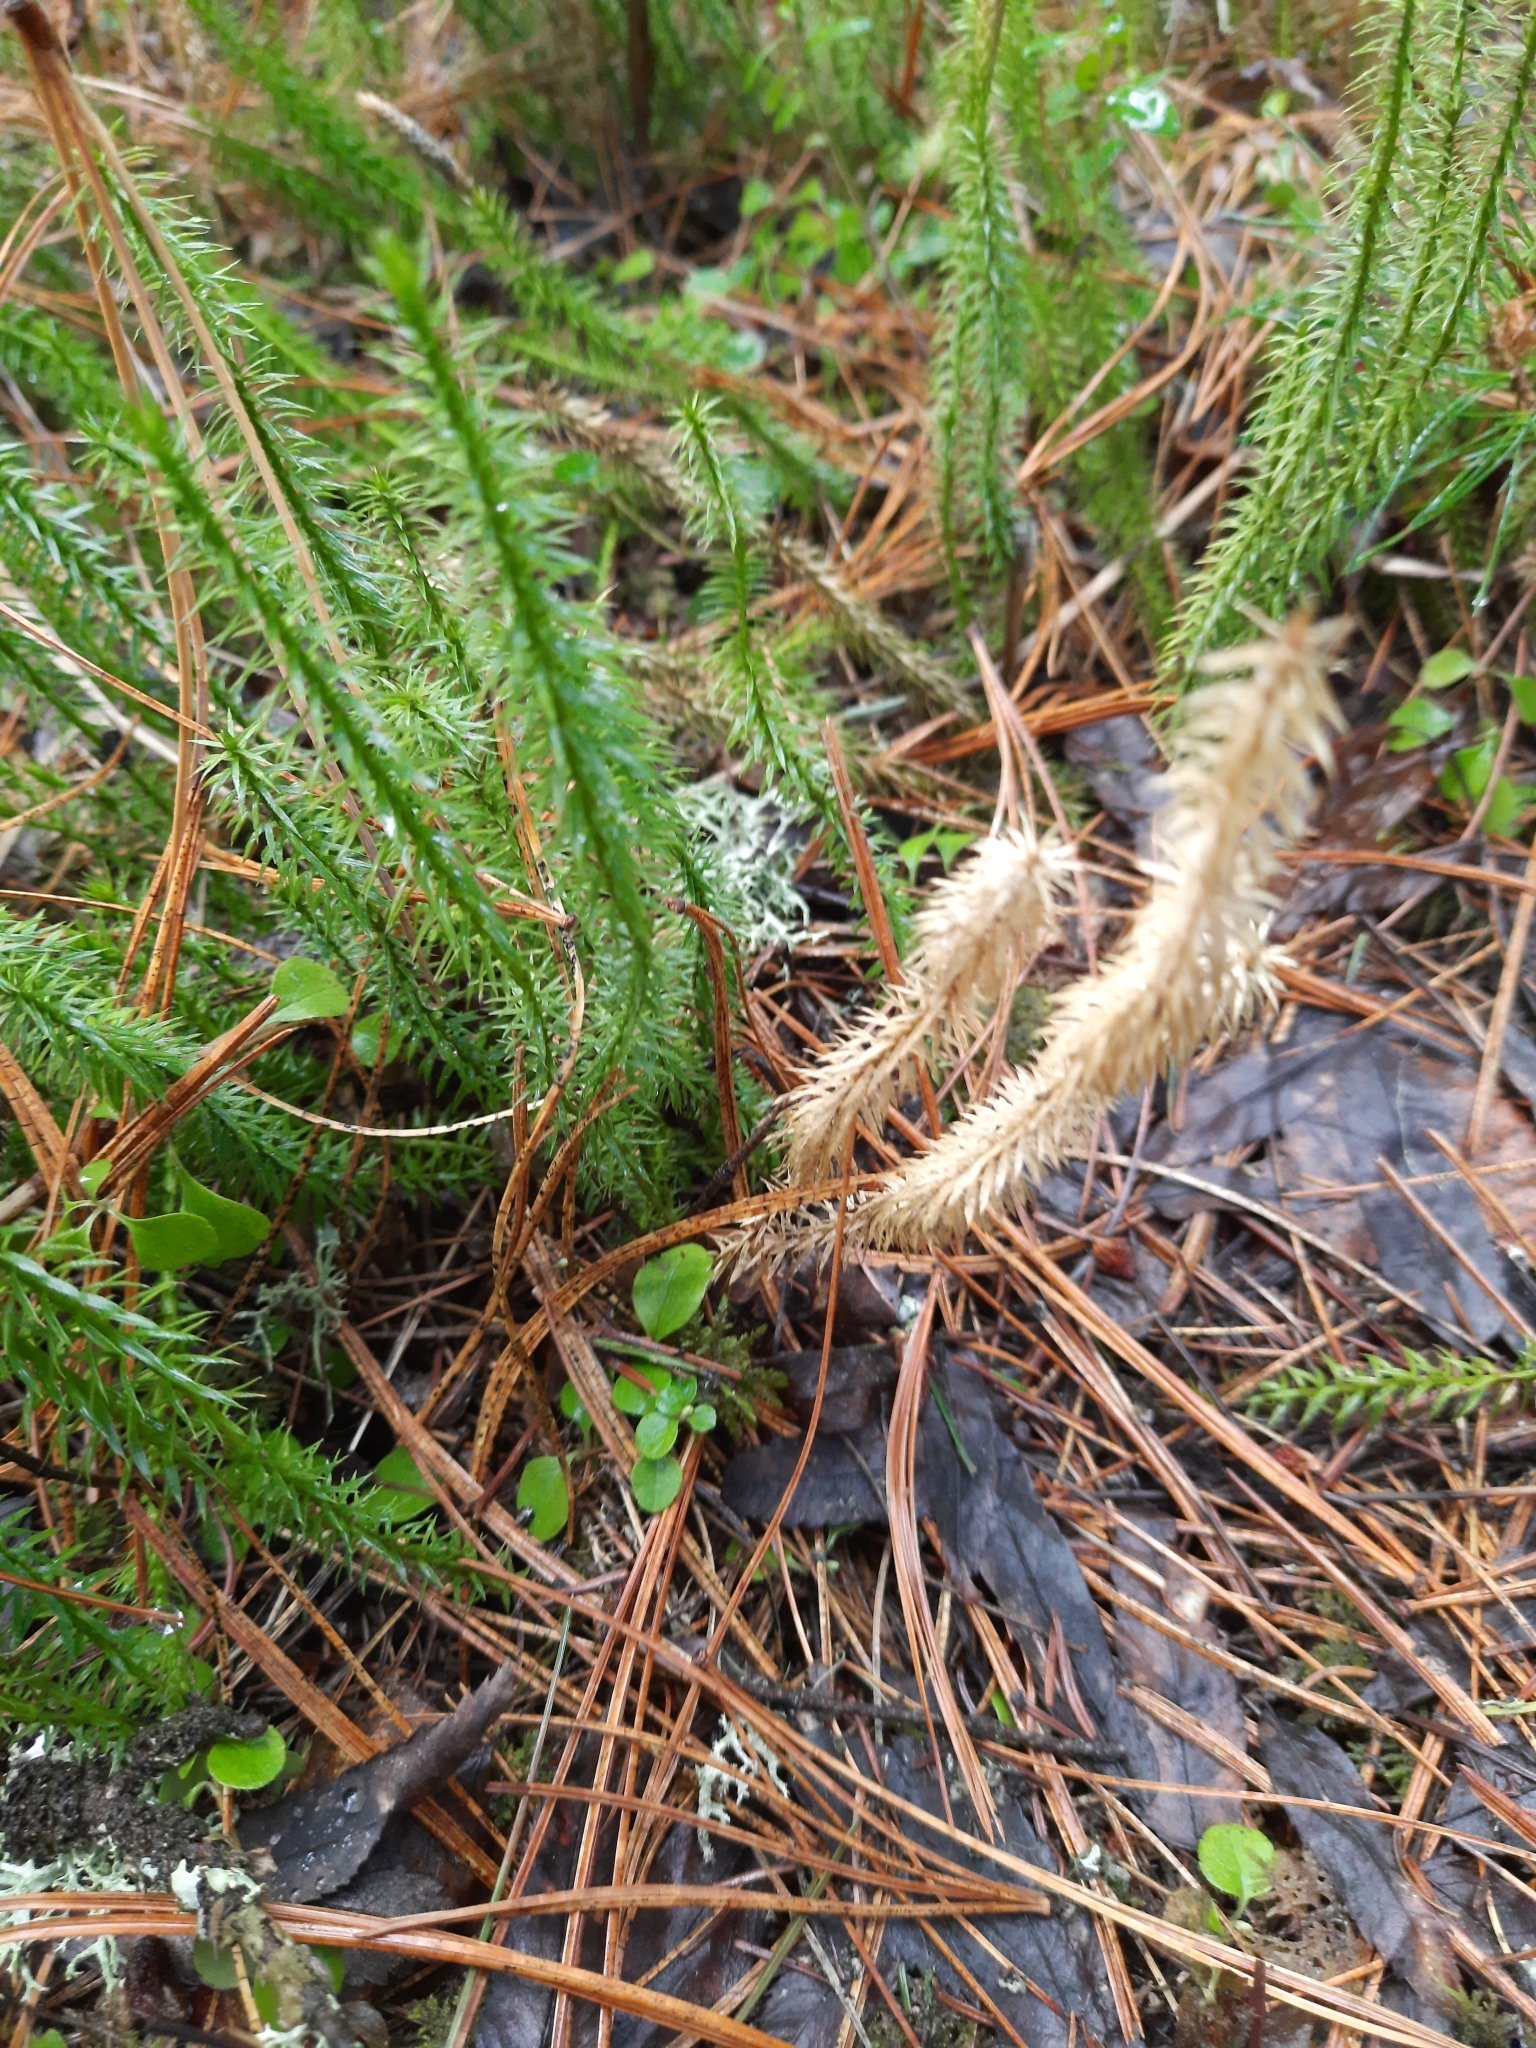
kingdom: Plantae
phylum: Tracheophyta
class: Lycopodiopsida
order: Lycopodiales
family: Lycopodiaceae
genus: Spinulum
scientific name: Spinulum annotinum
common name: Interrupted club-moss
